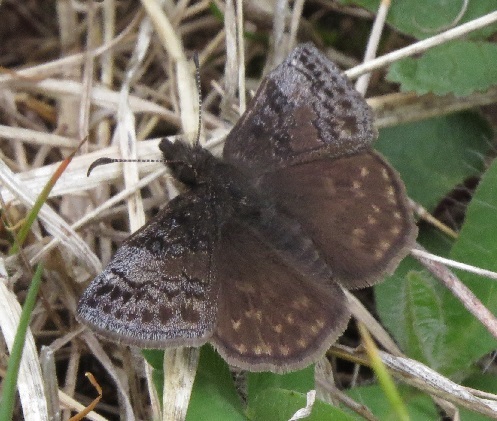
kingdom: Animalia
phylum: Arthropoda
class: Insecta
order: Lepidoptera
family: Hesperiidae
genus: Erynnis
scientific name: Erynnis icelus
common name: Dreamy duskywing
